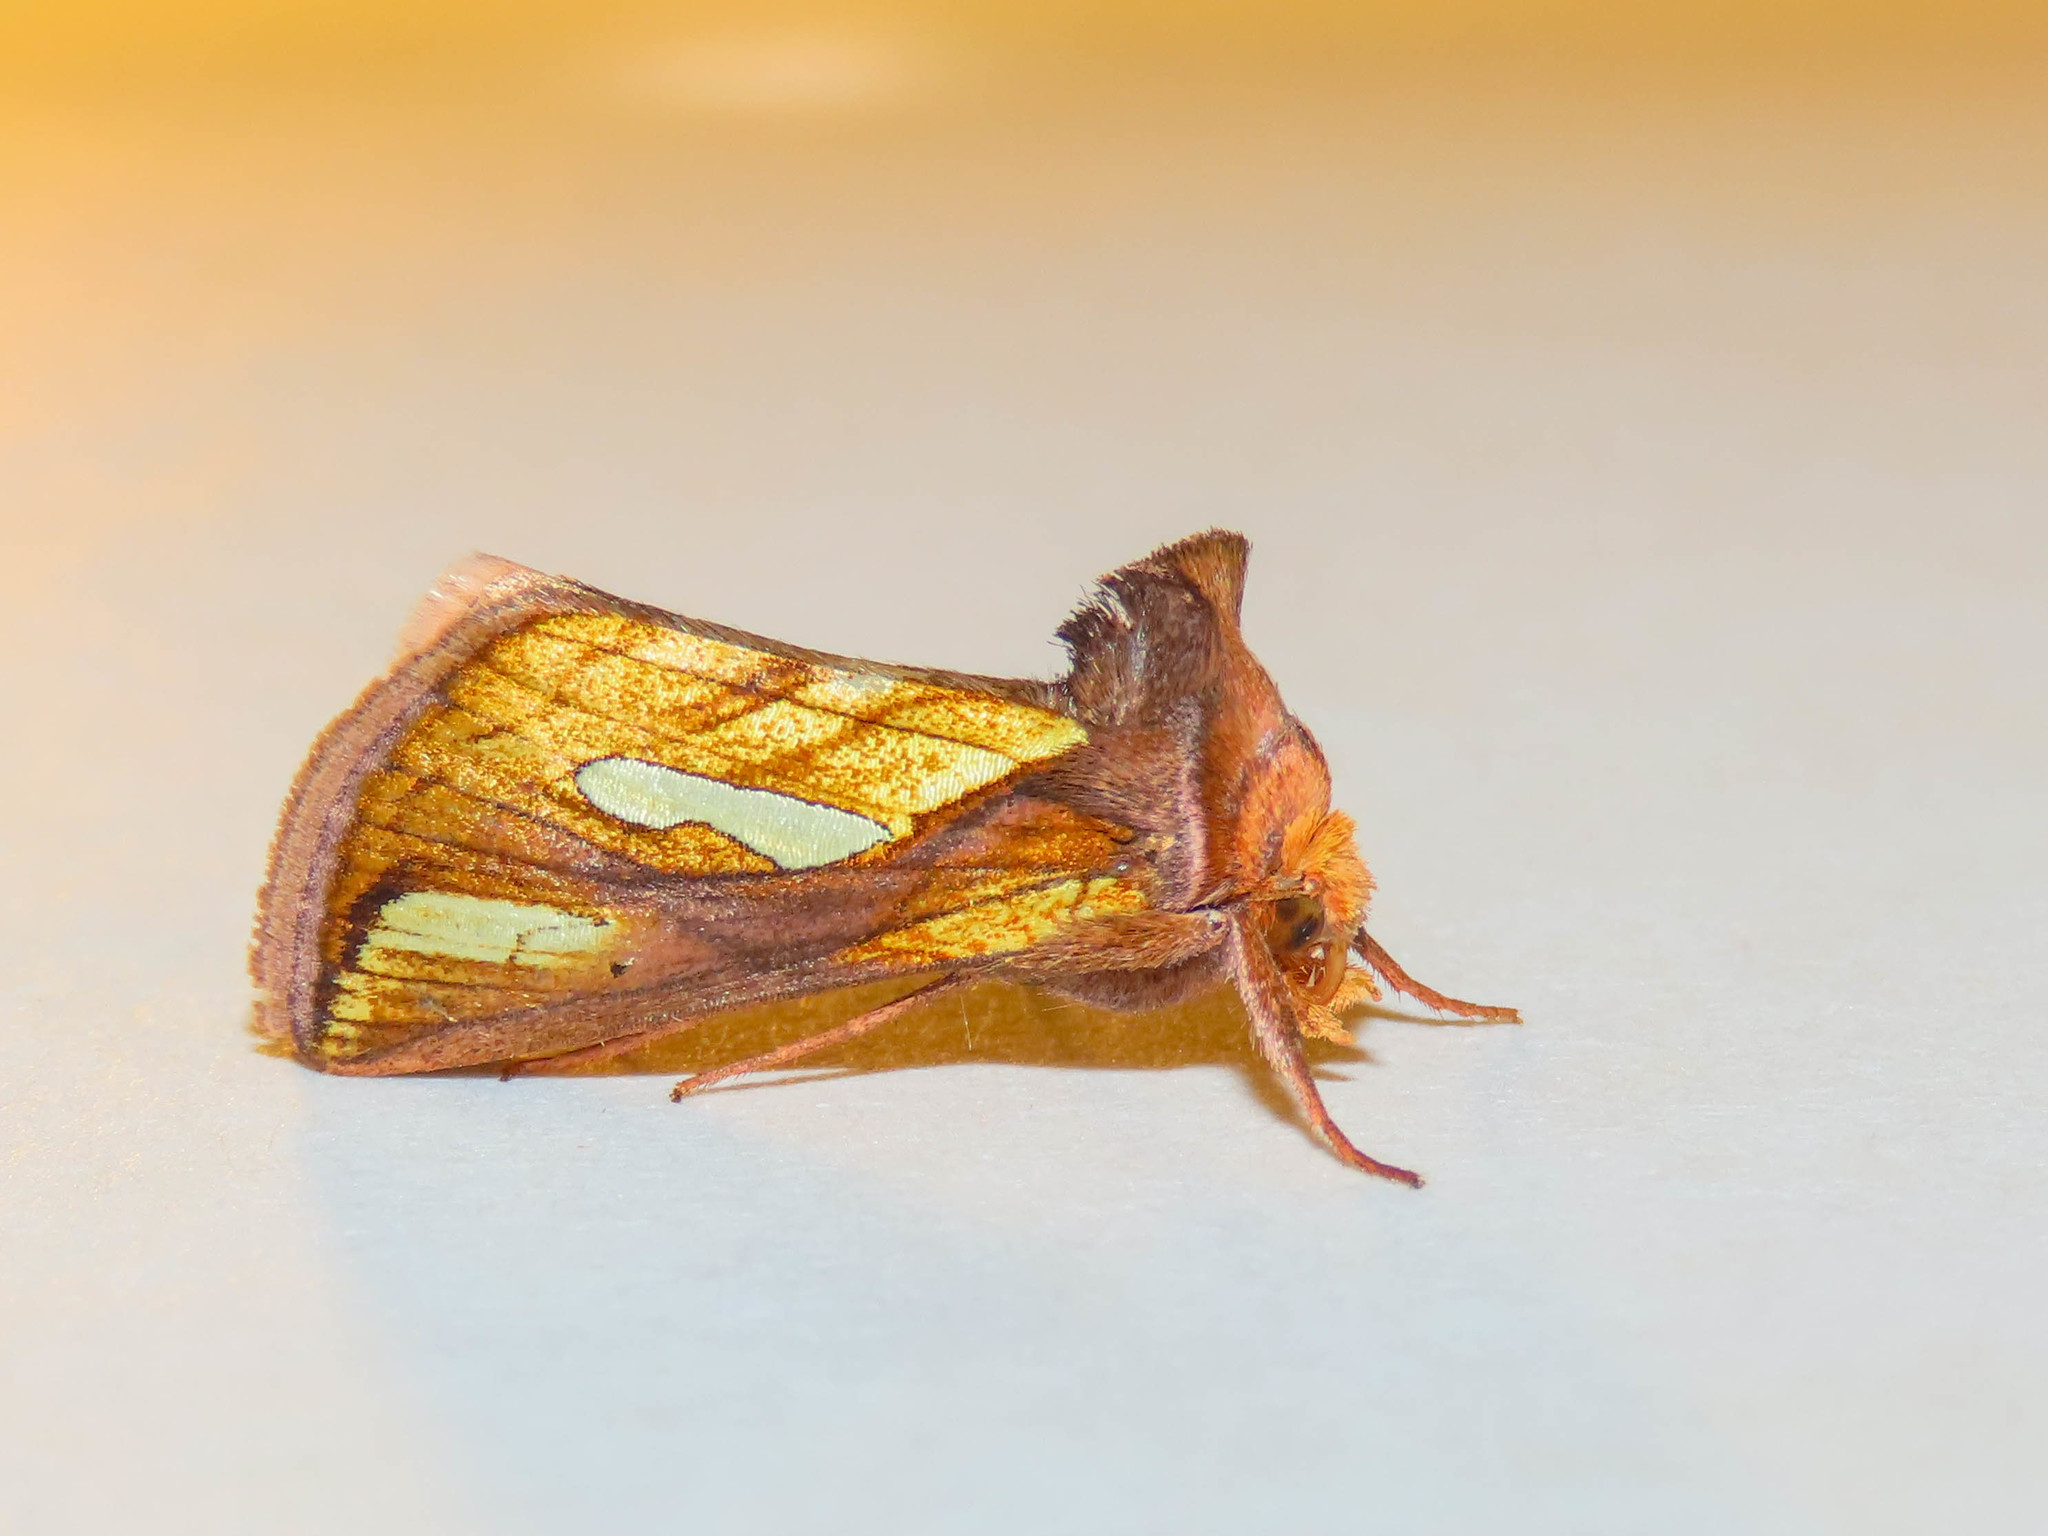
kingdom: Animalia
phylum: Arthropoda
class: Insecta
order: Lepidoptera
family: Noctuidae
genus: Plusia
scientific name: Plusia contexta
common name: Connected looper moth
